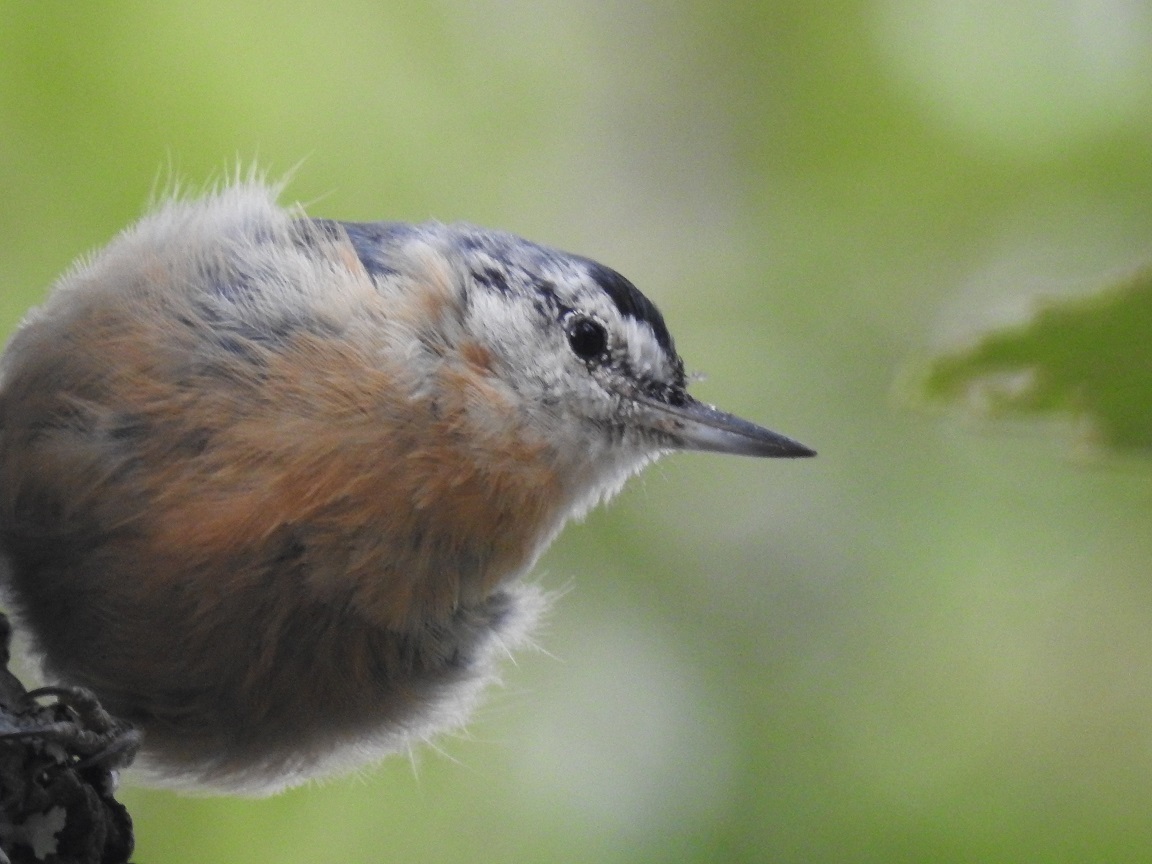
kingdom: Animalia
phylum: Chordata
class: Aves
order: Passeriformes
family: Sittidae
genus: Sitta
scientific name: Sitta ledanti
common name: Algerian nuthatch
